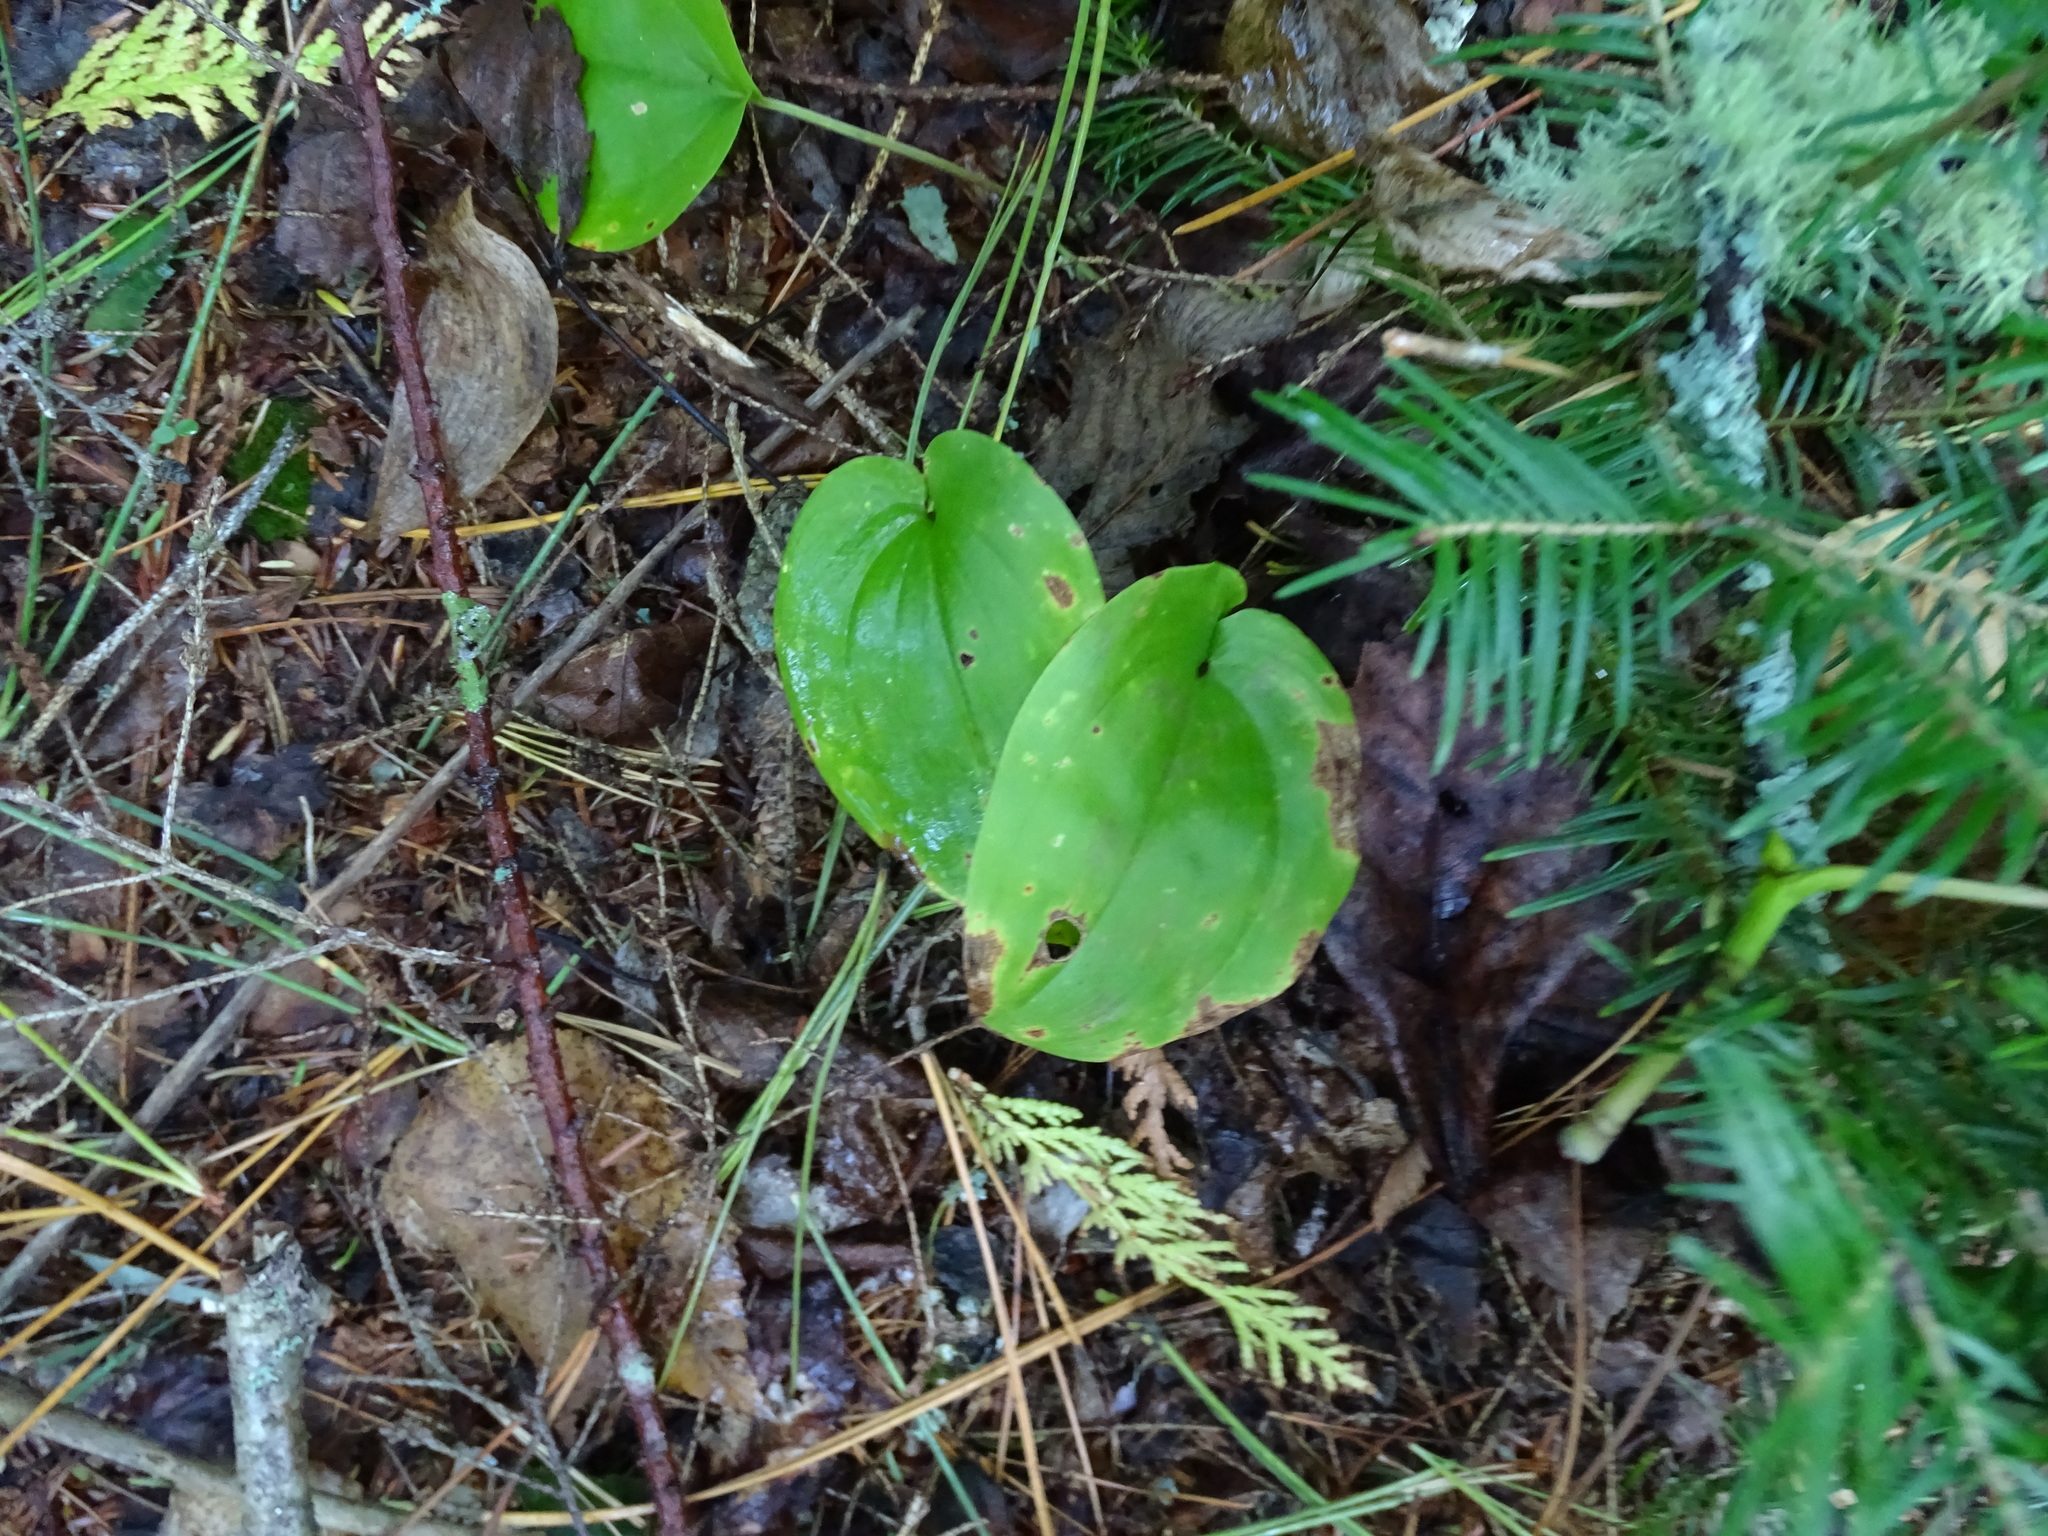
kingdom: Plantae
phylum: Tracheophyta
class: Liliopsida
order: Asparagales
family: Asparagaceae
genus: Maianthemum
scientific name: Maianthemum canadense
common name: False lily-of-the-valley
